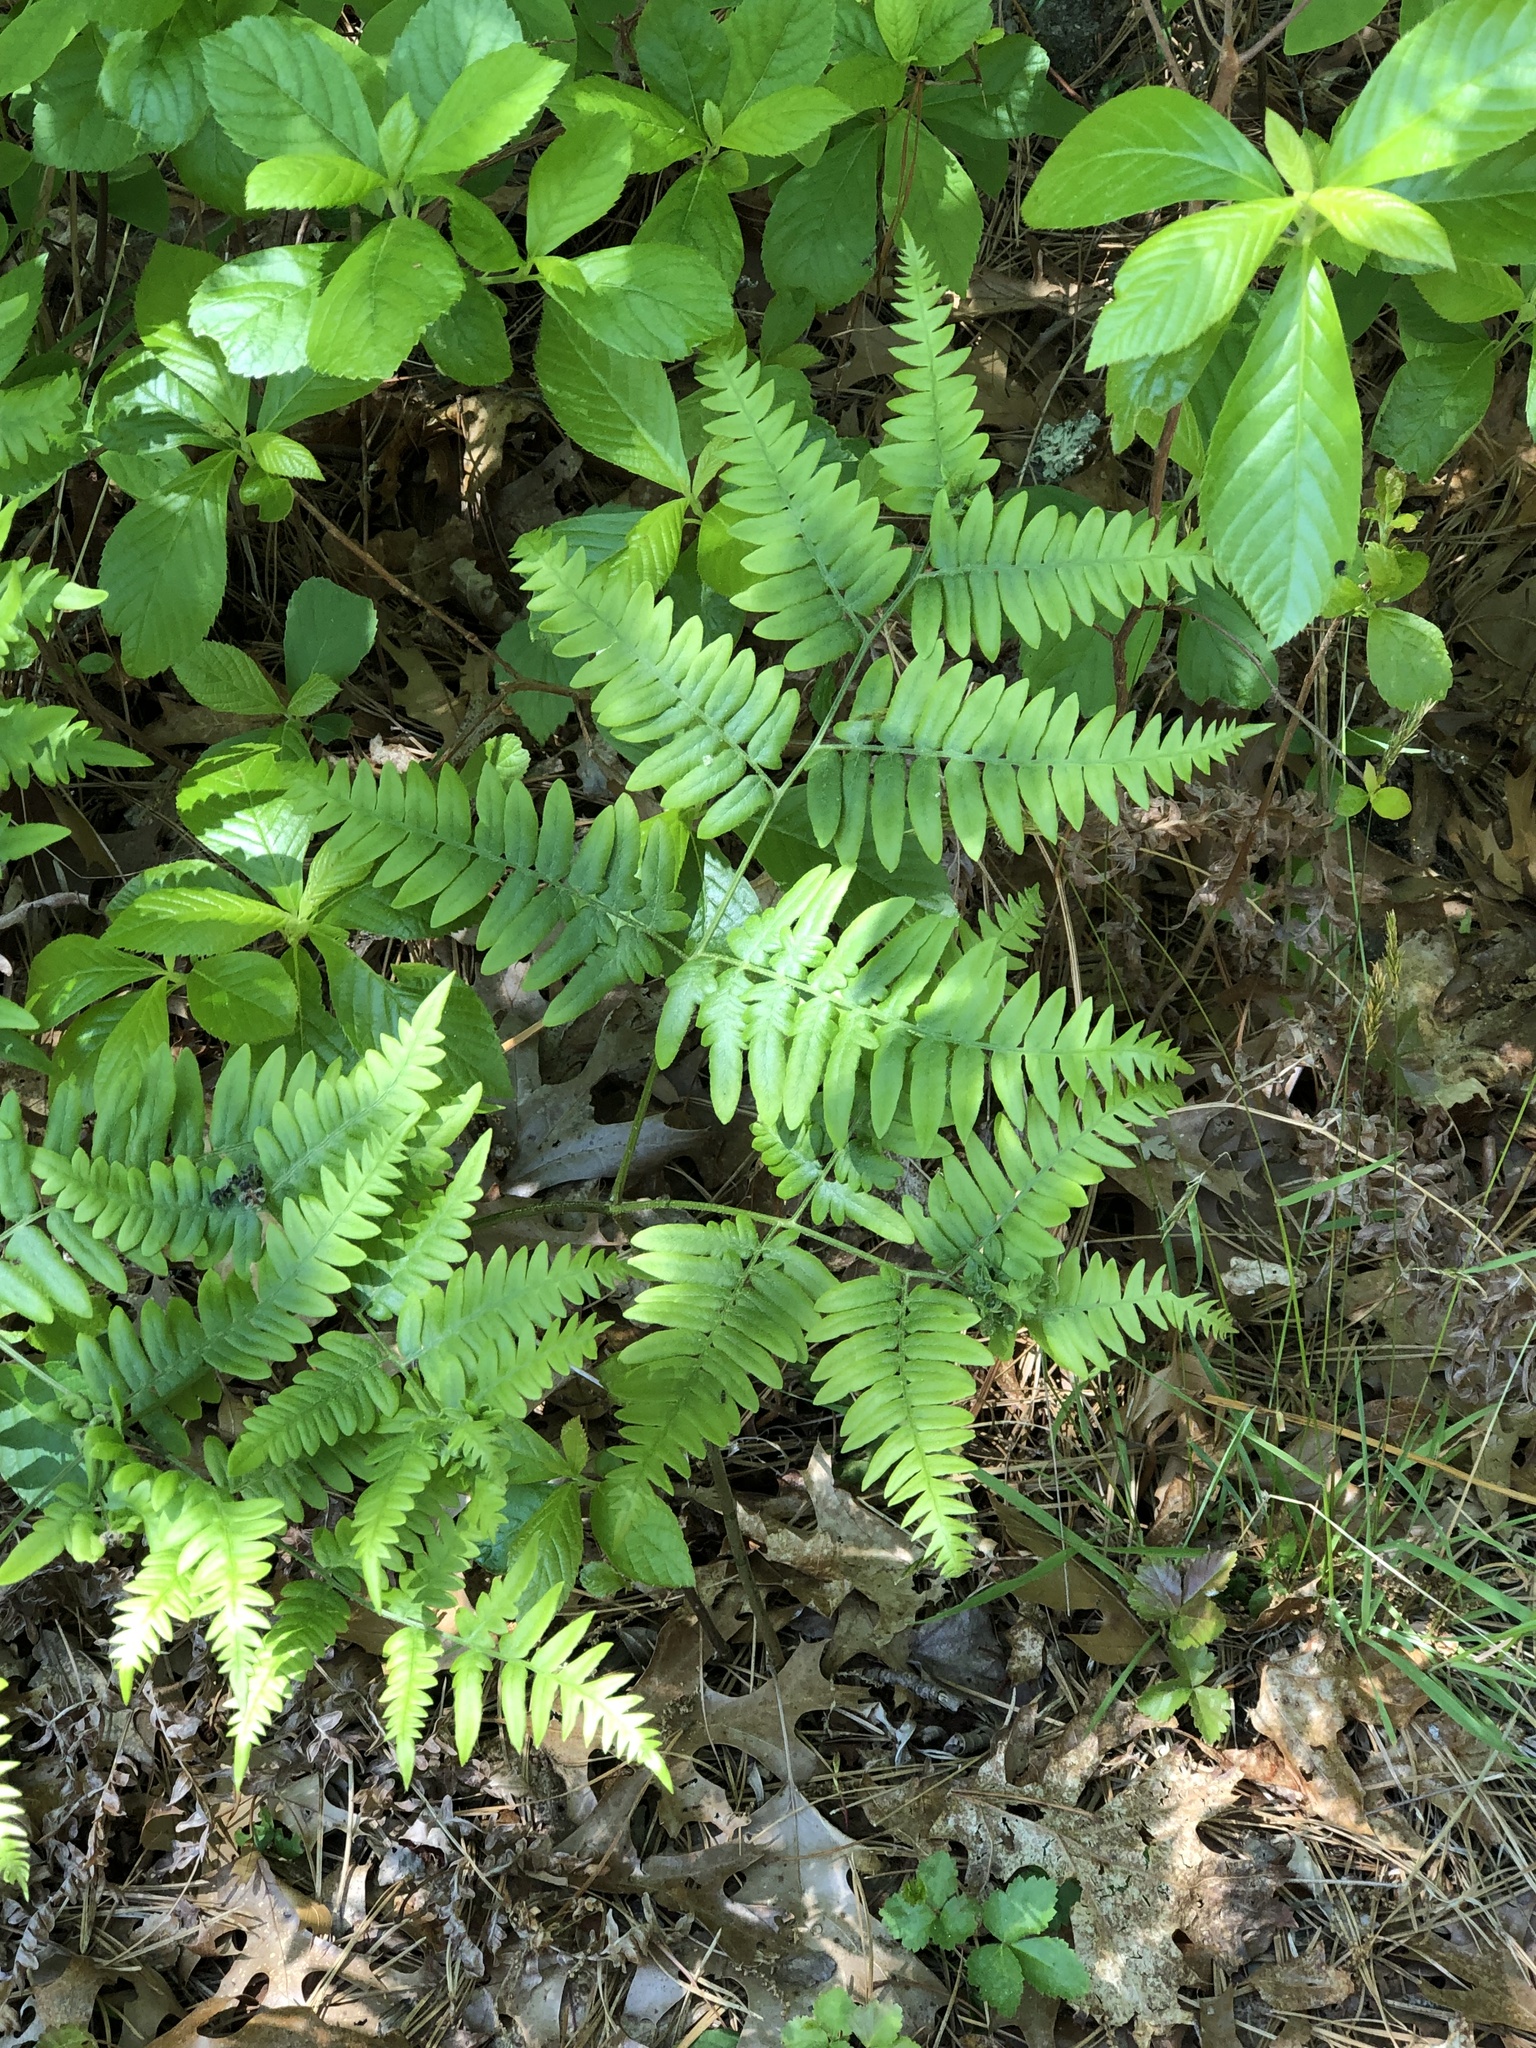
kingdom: Plantae
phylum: Tracheophyta
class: Polypodiopsida
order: Polypodiales
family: Dennstaedtiaceae
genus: Pteridium
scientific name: Pteridium aquilinum
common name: Bracken
